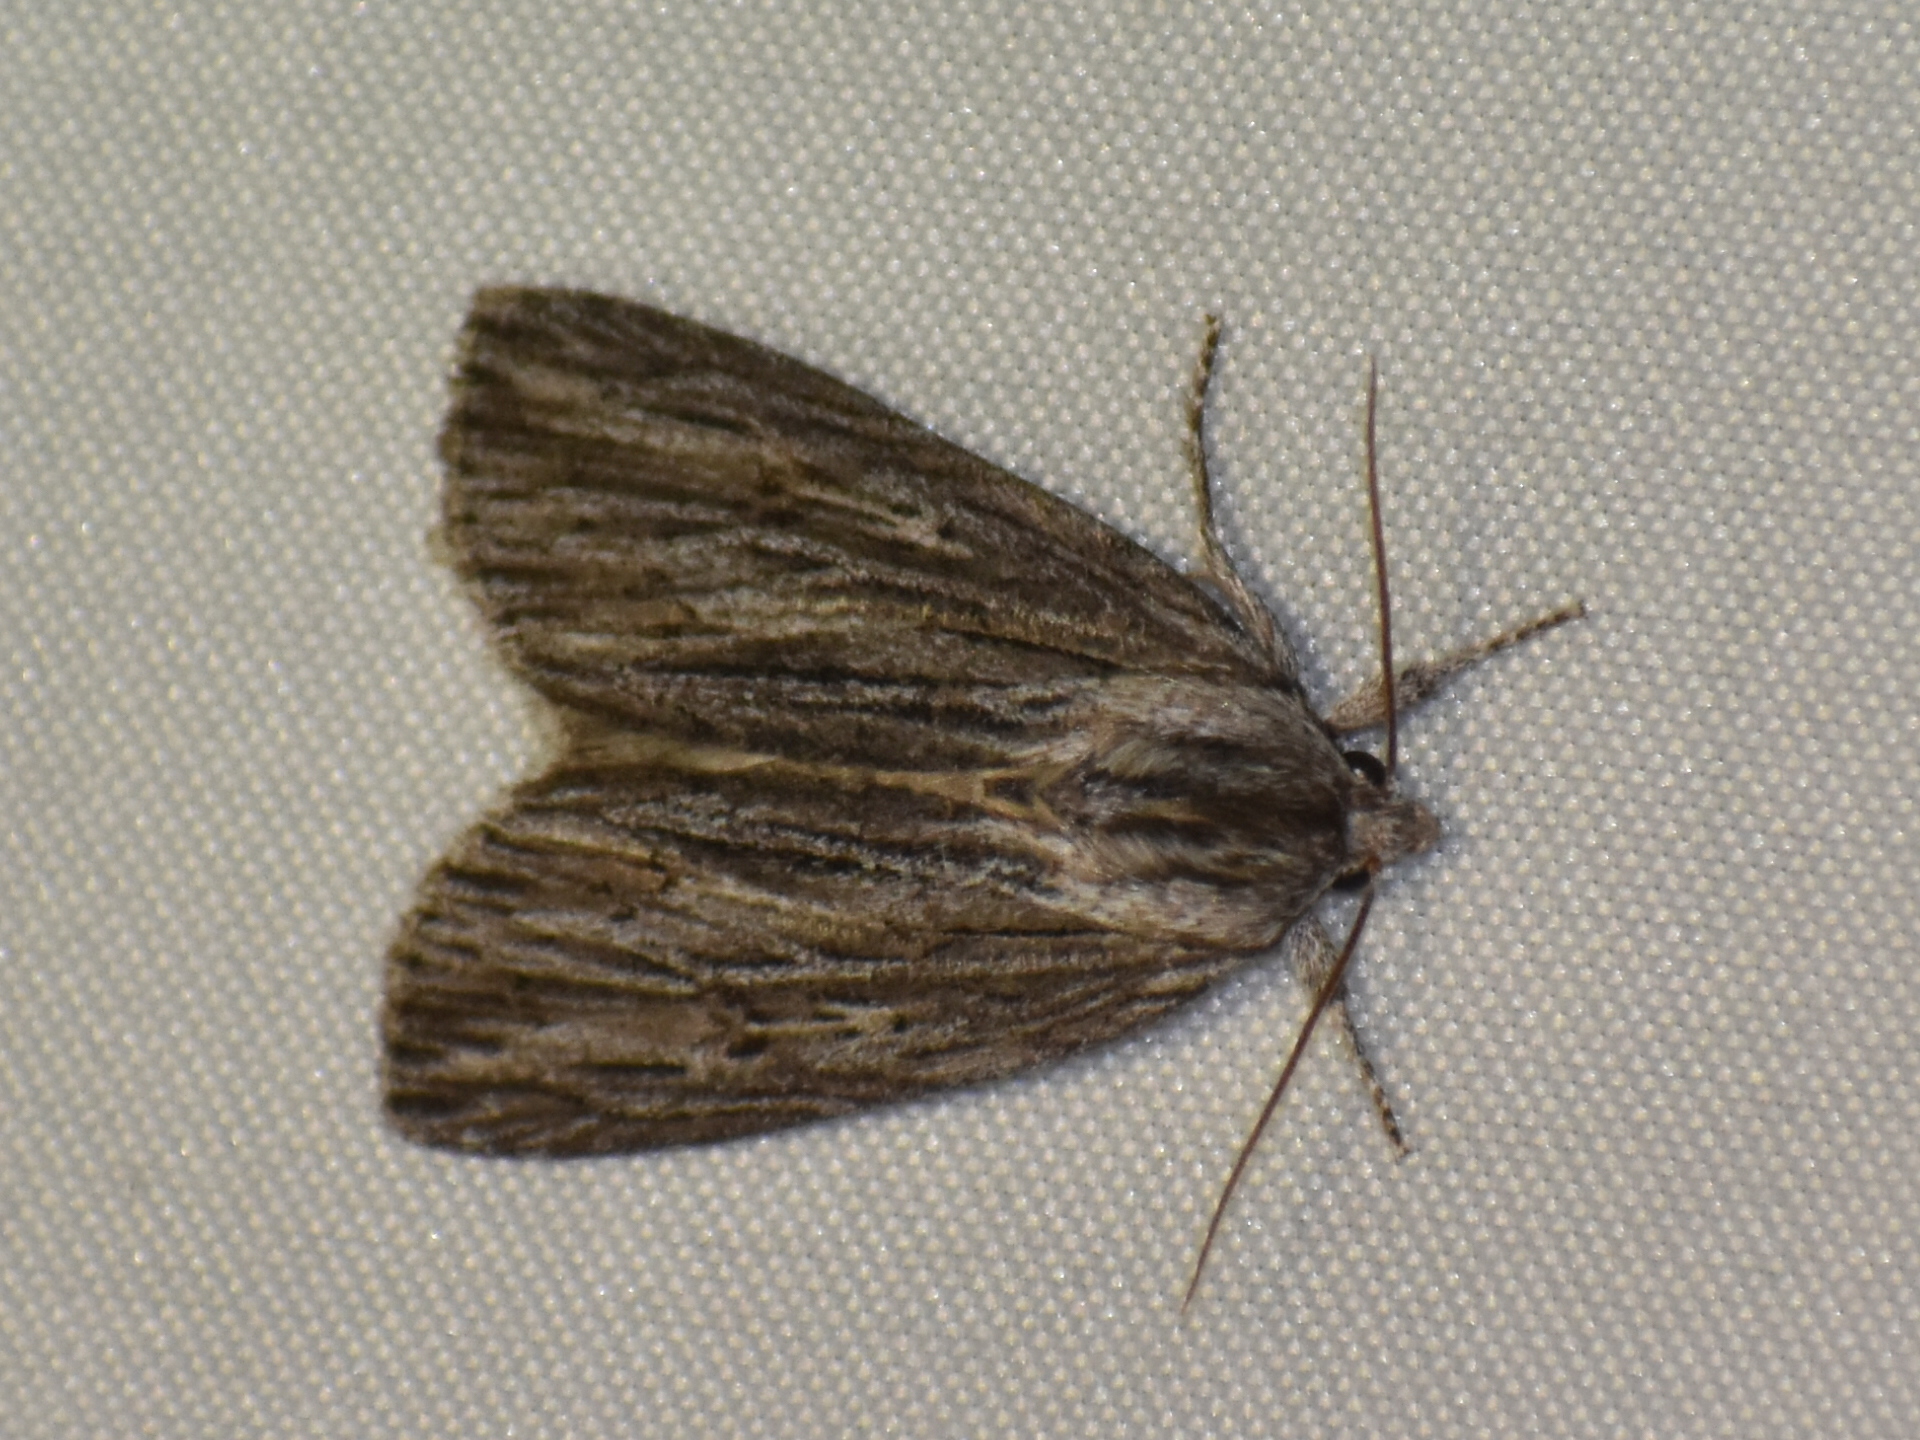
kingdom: Animalia
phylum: Arthropoda
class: Insecta
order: Lepidoptera
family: Noctuidae
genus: Acronicta
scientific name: Acronicta lithospila
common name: Streaked dagger
